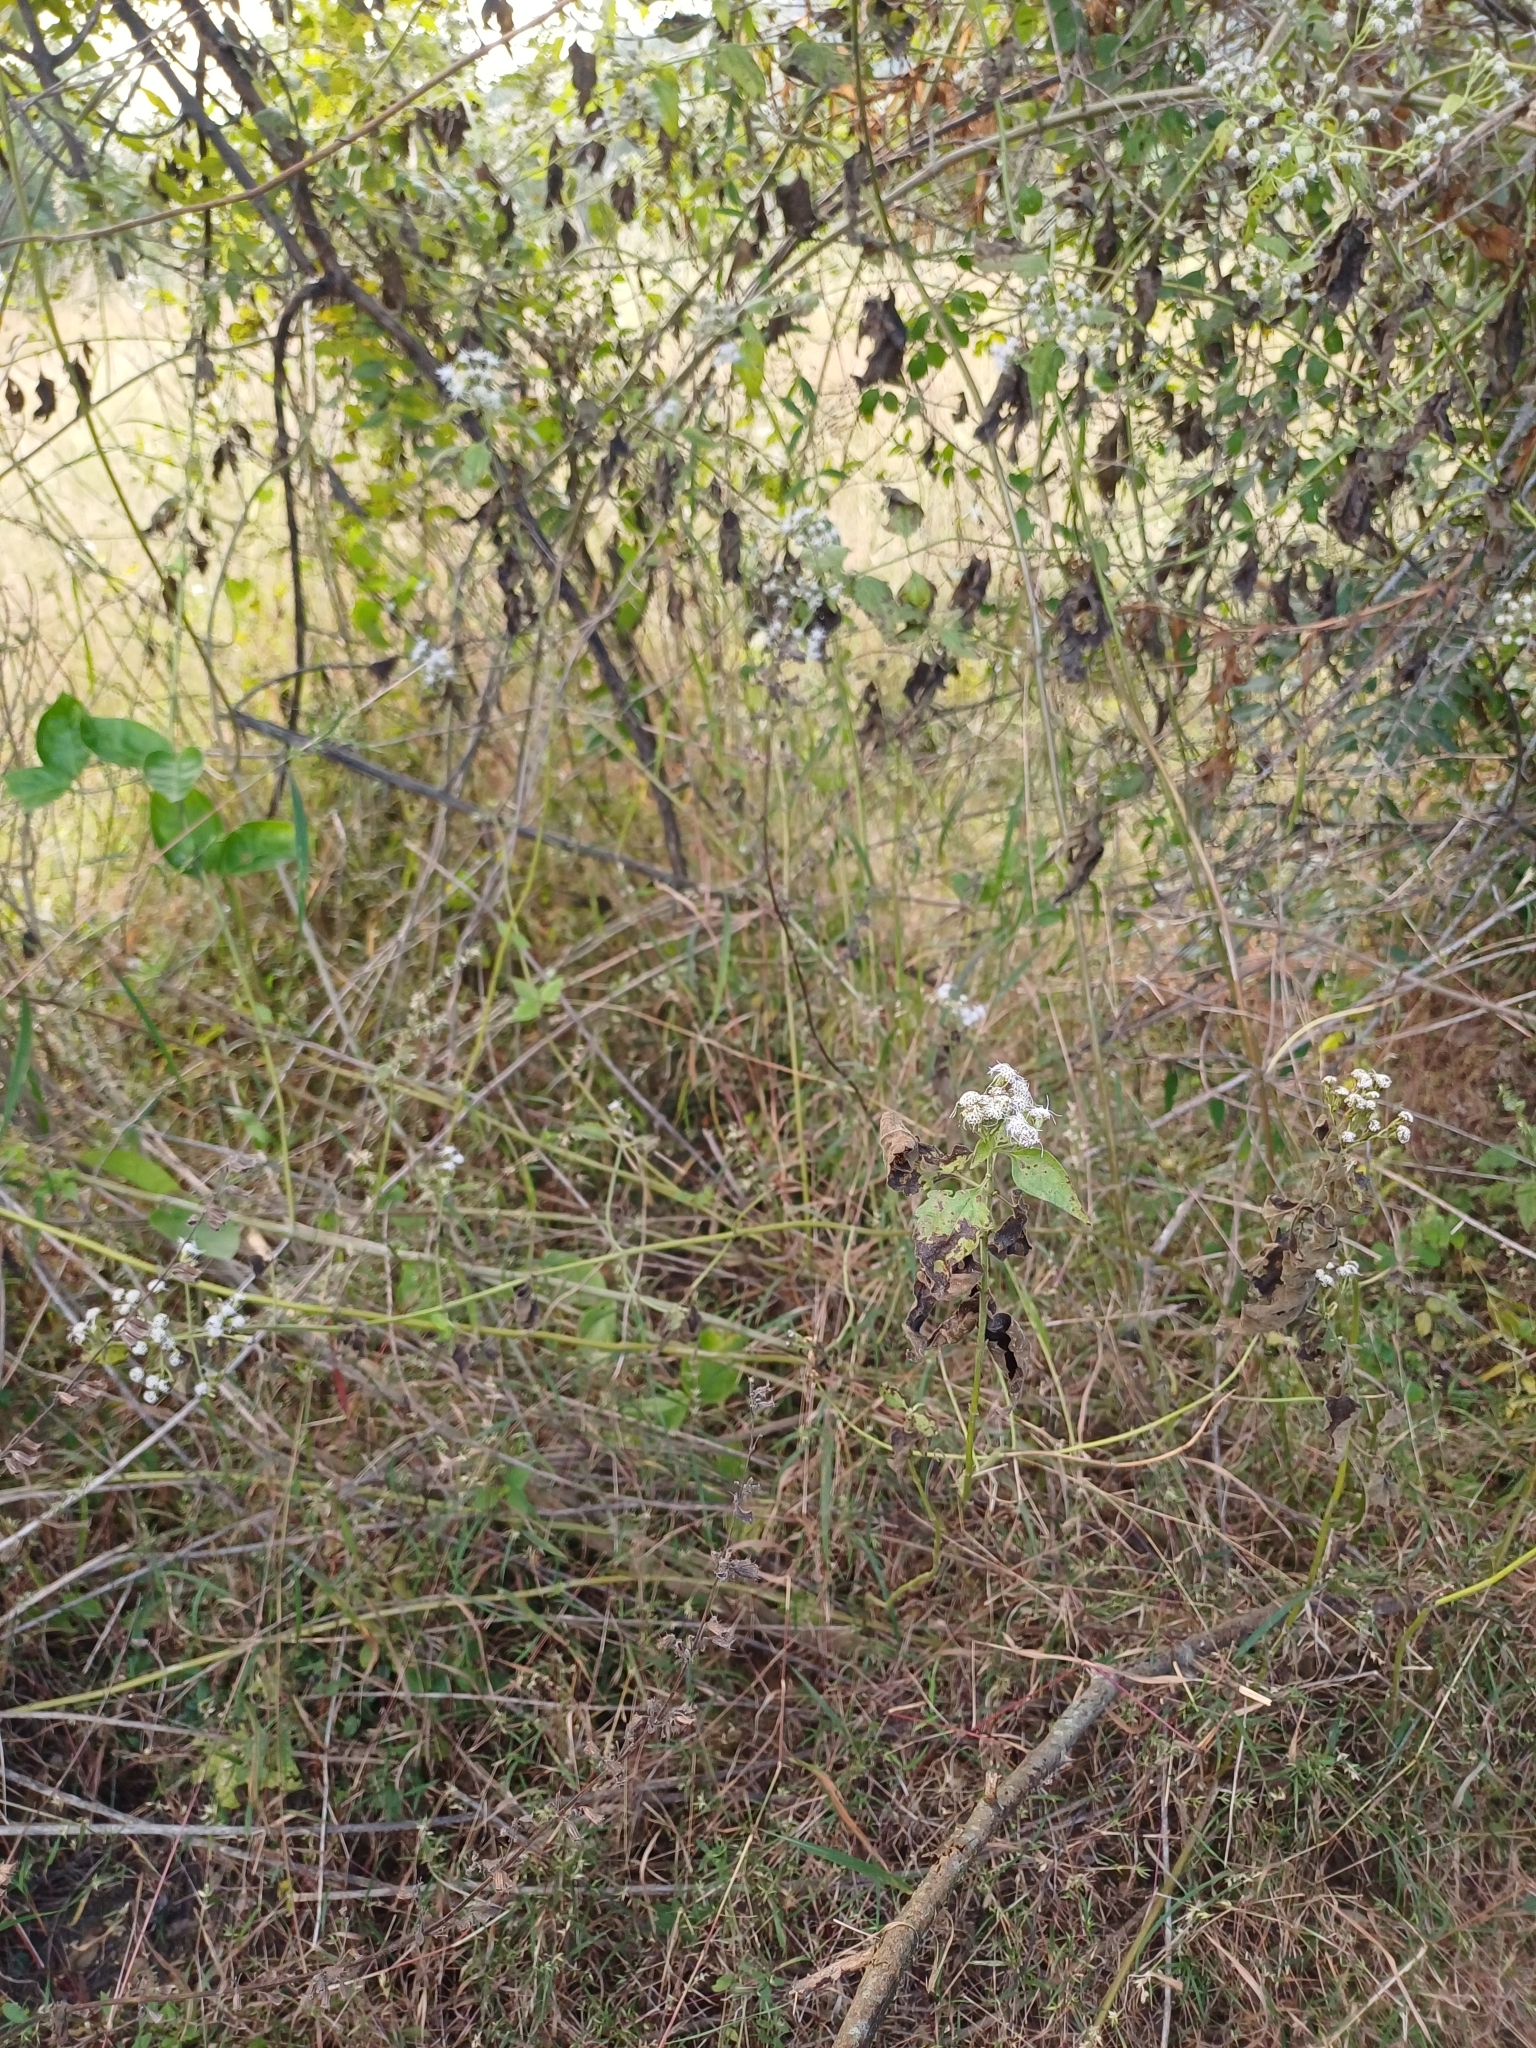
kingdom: Plantae
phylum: Tracheophyta
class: Magnoliopsida
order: Asterales
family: Asteraceae
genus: Chromolaena
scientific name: Chromolaena odorata
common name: Siamweed
